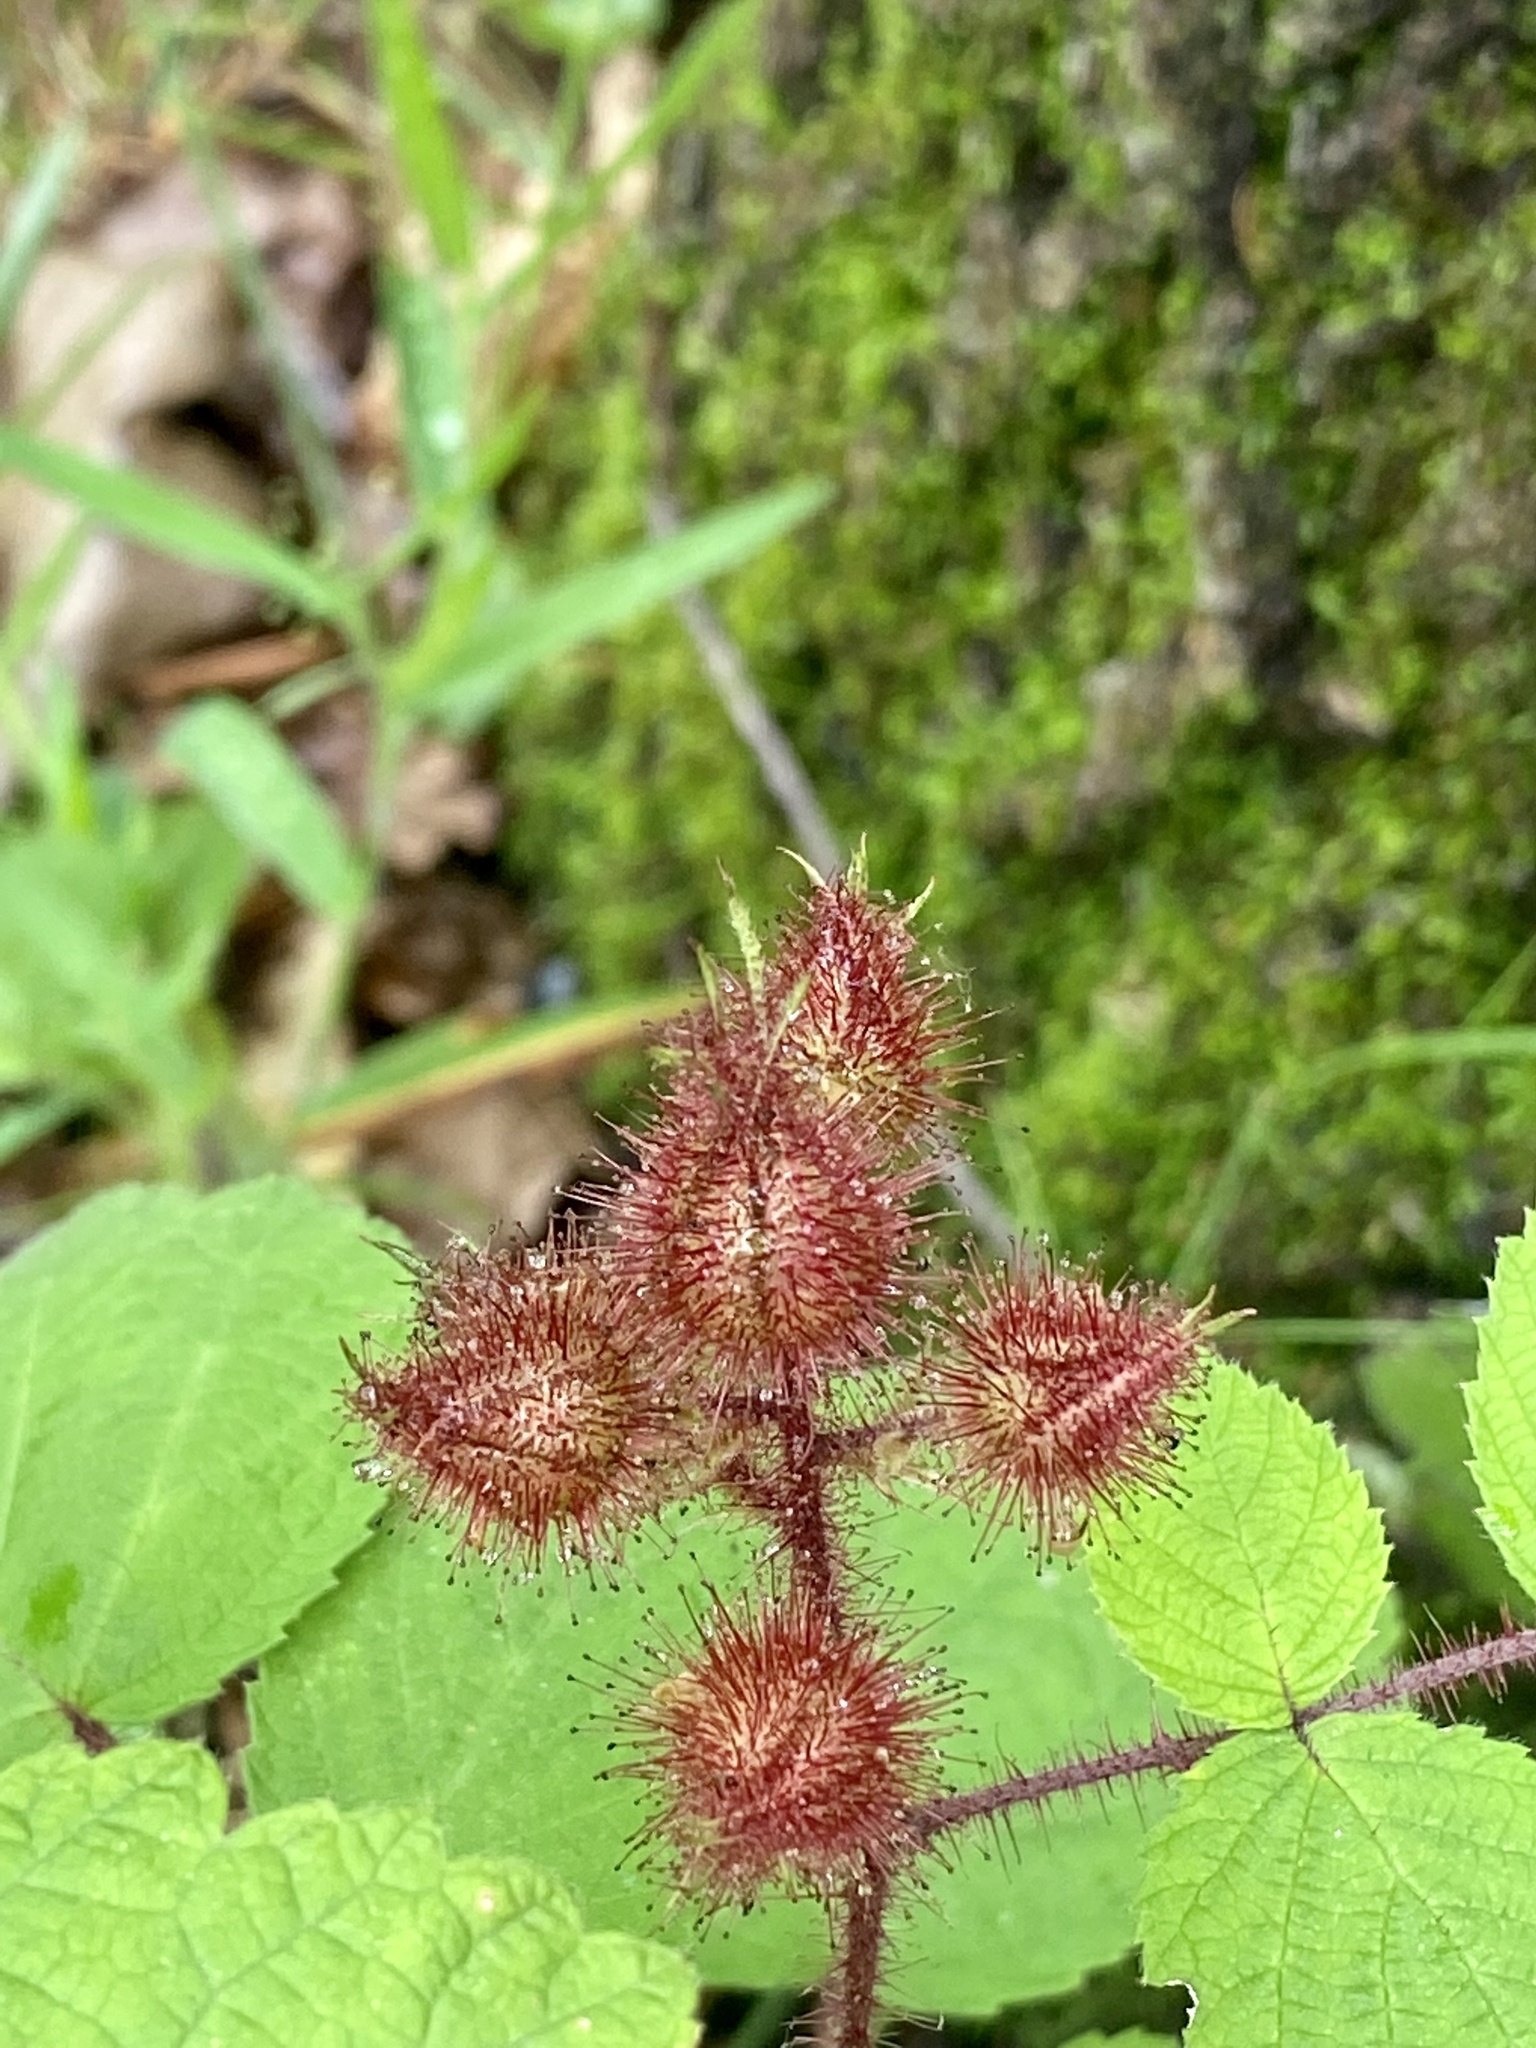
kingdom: Plantae
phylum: Tracheophyta
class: Magnoliopsida
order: Rosales
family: Rosaceae
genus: Rubus
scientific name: Rubus phoenicolasius
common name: Japanese wineberry
